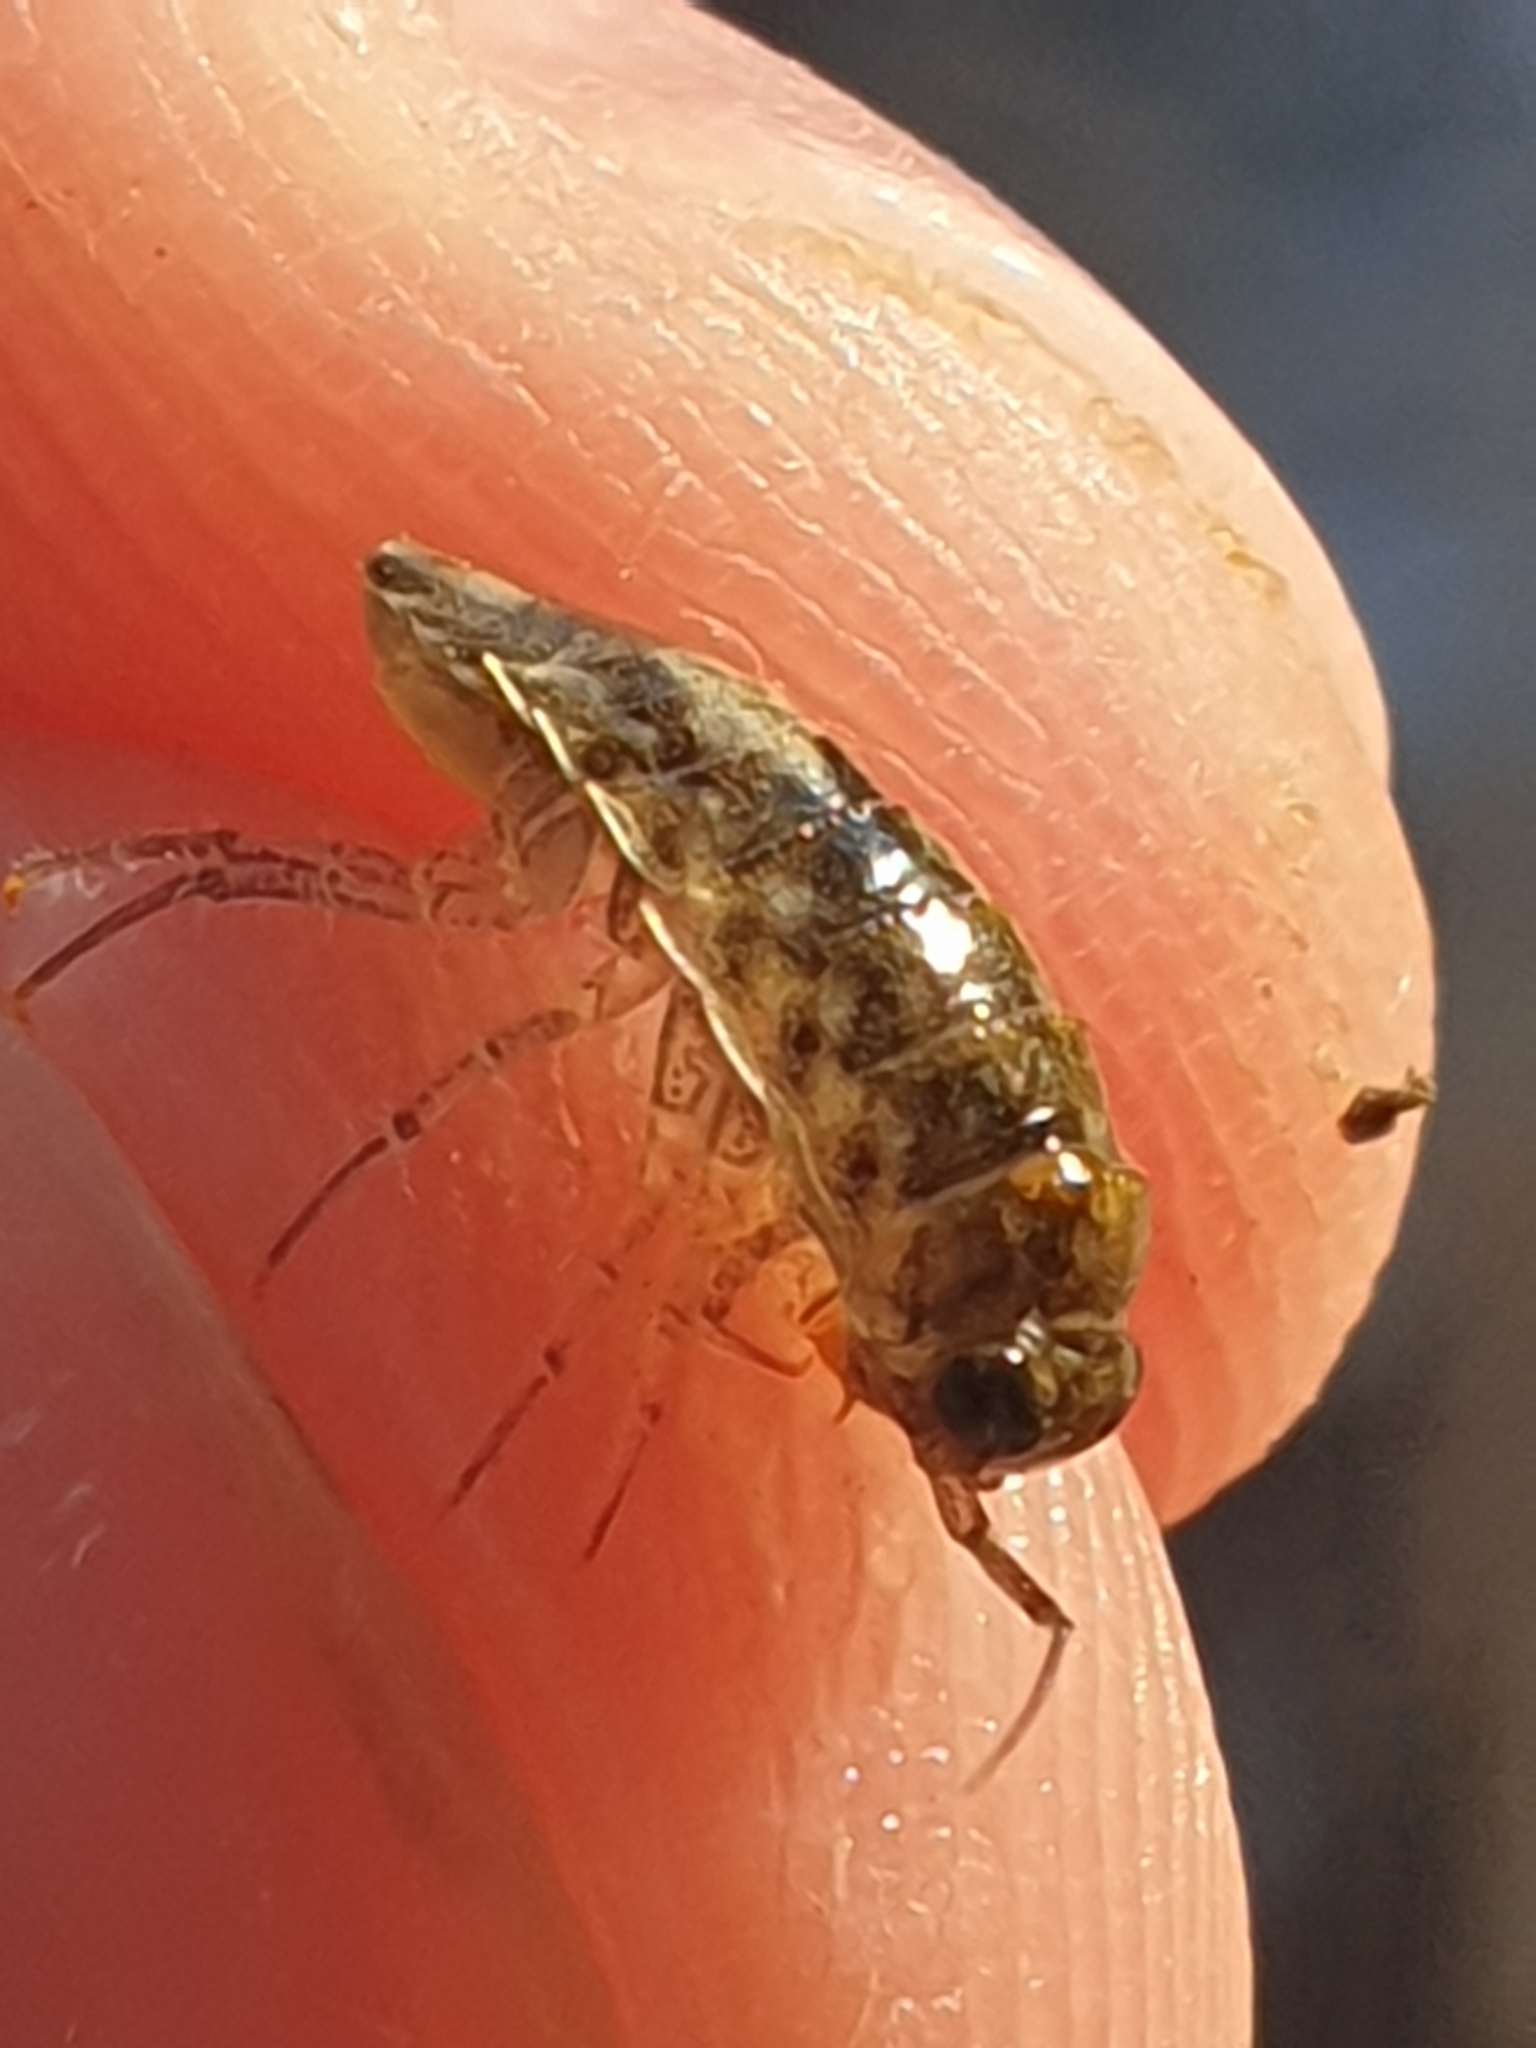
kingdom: Animalia
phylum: Arthropoda
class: Malacostraca
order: Isopoda
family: Ligiidae
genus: Ligia
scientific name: Ligia italica
